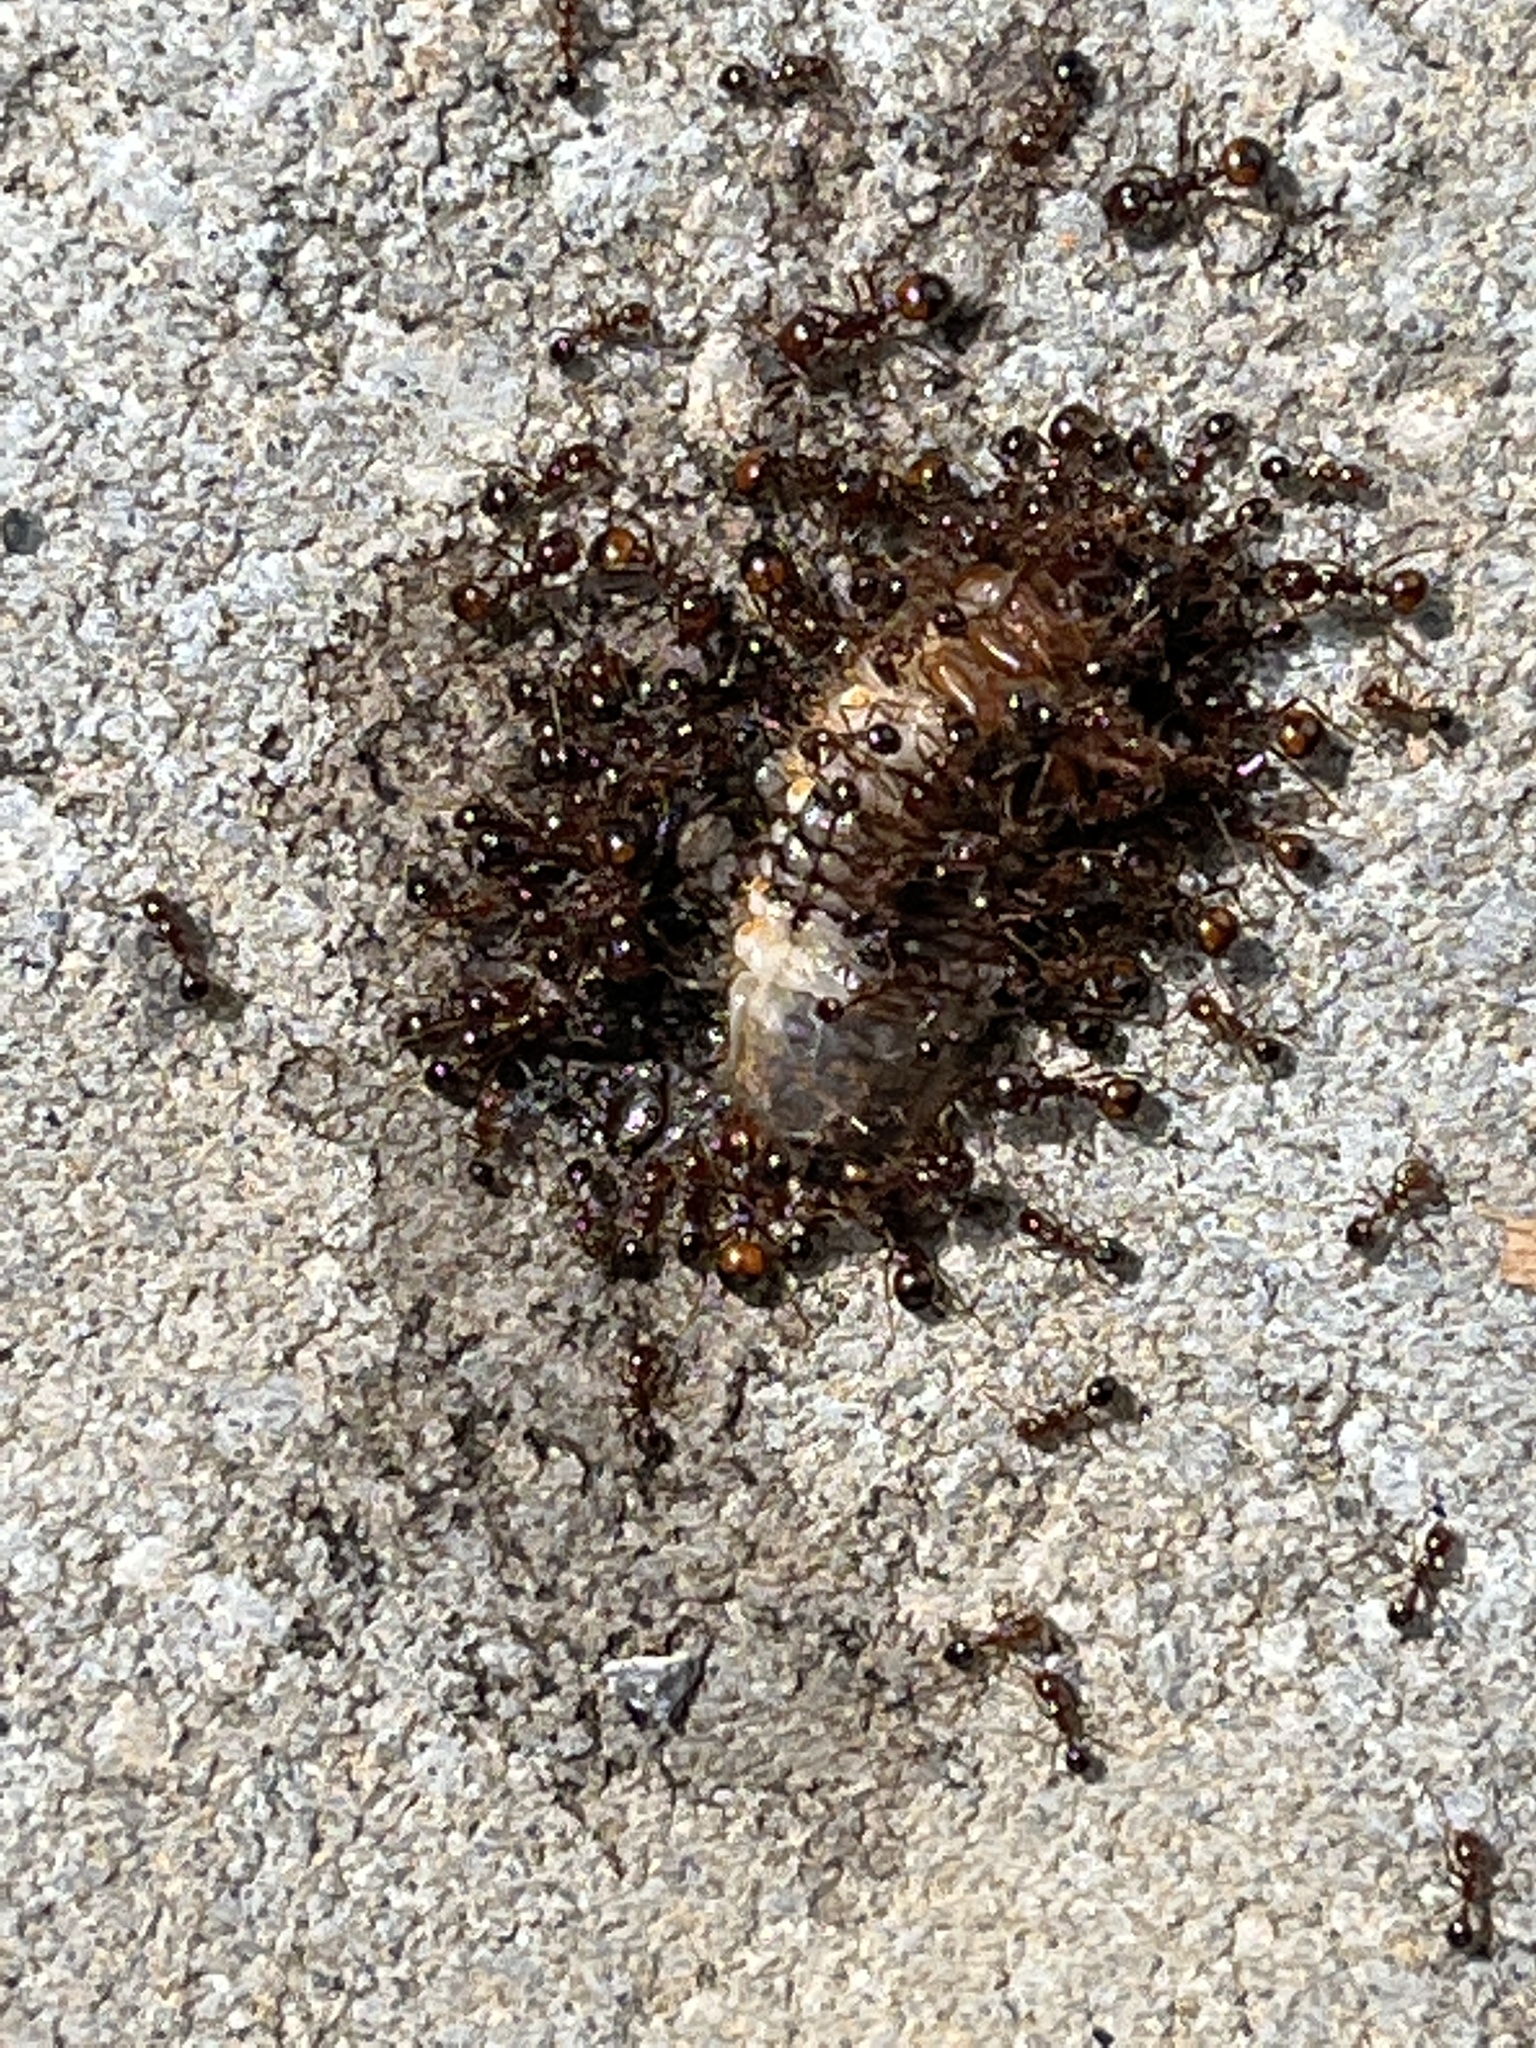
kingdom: Animalia
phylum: Arthropoda
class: Insecta
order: Hymenoptera
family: Formicidae
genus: Solenopsis
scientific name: Solenopsis
